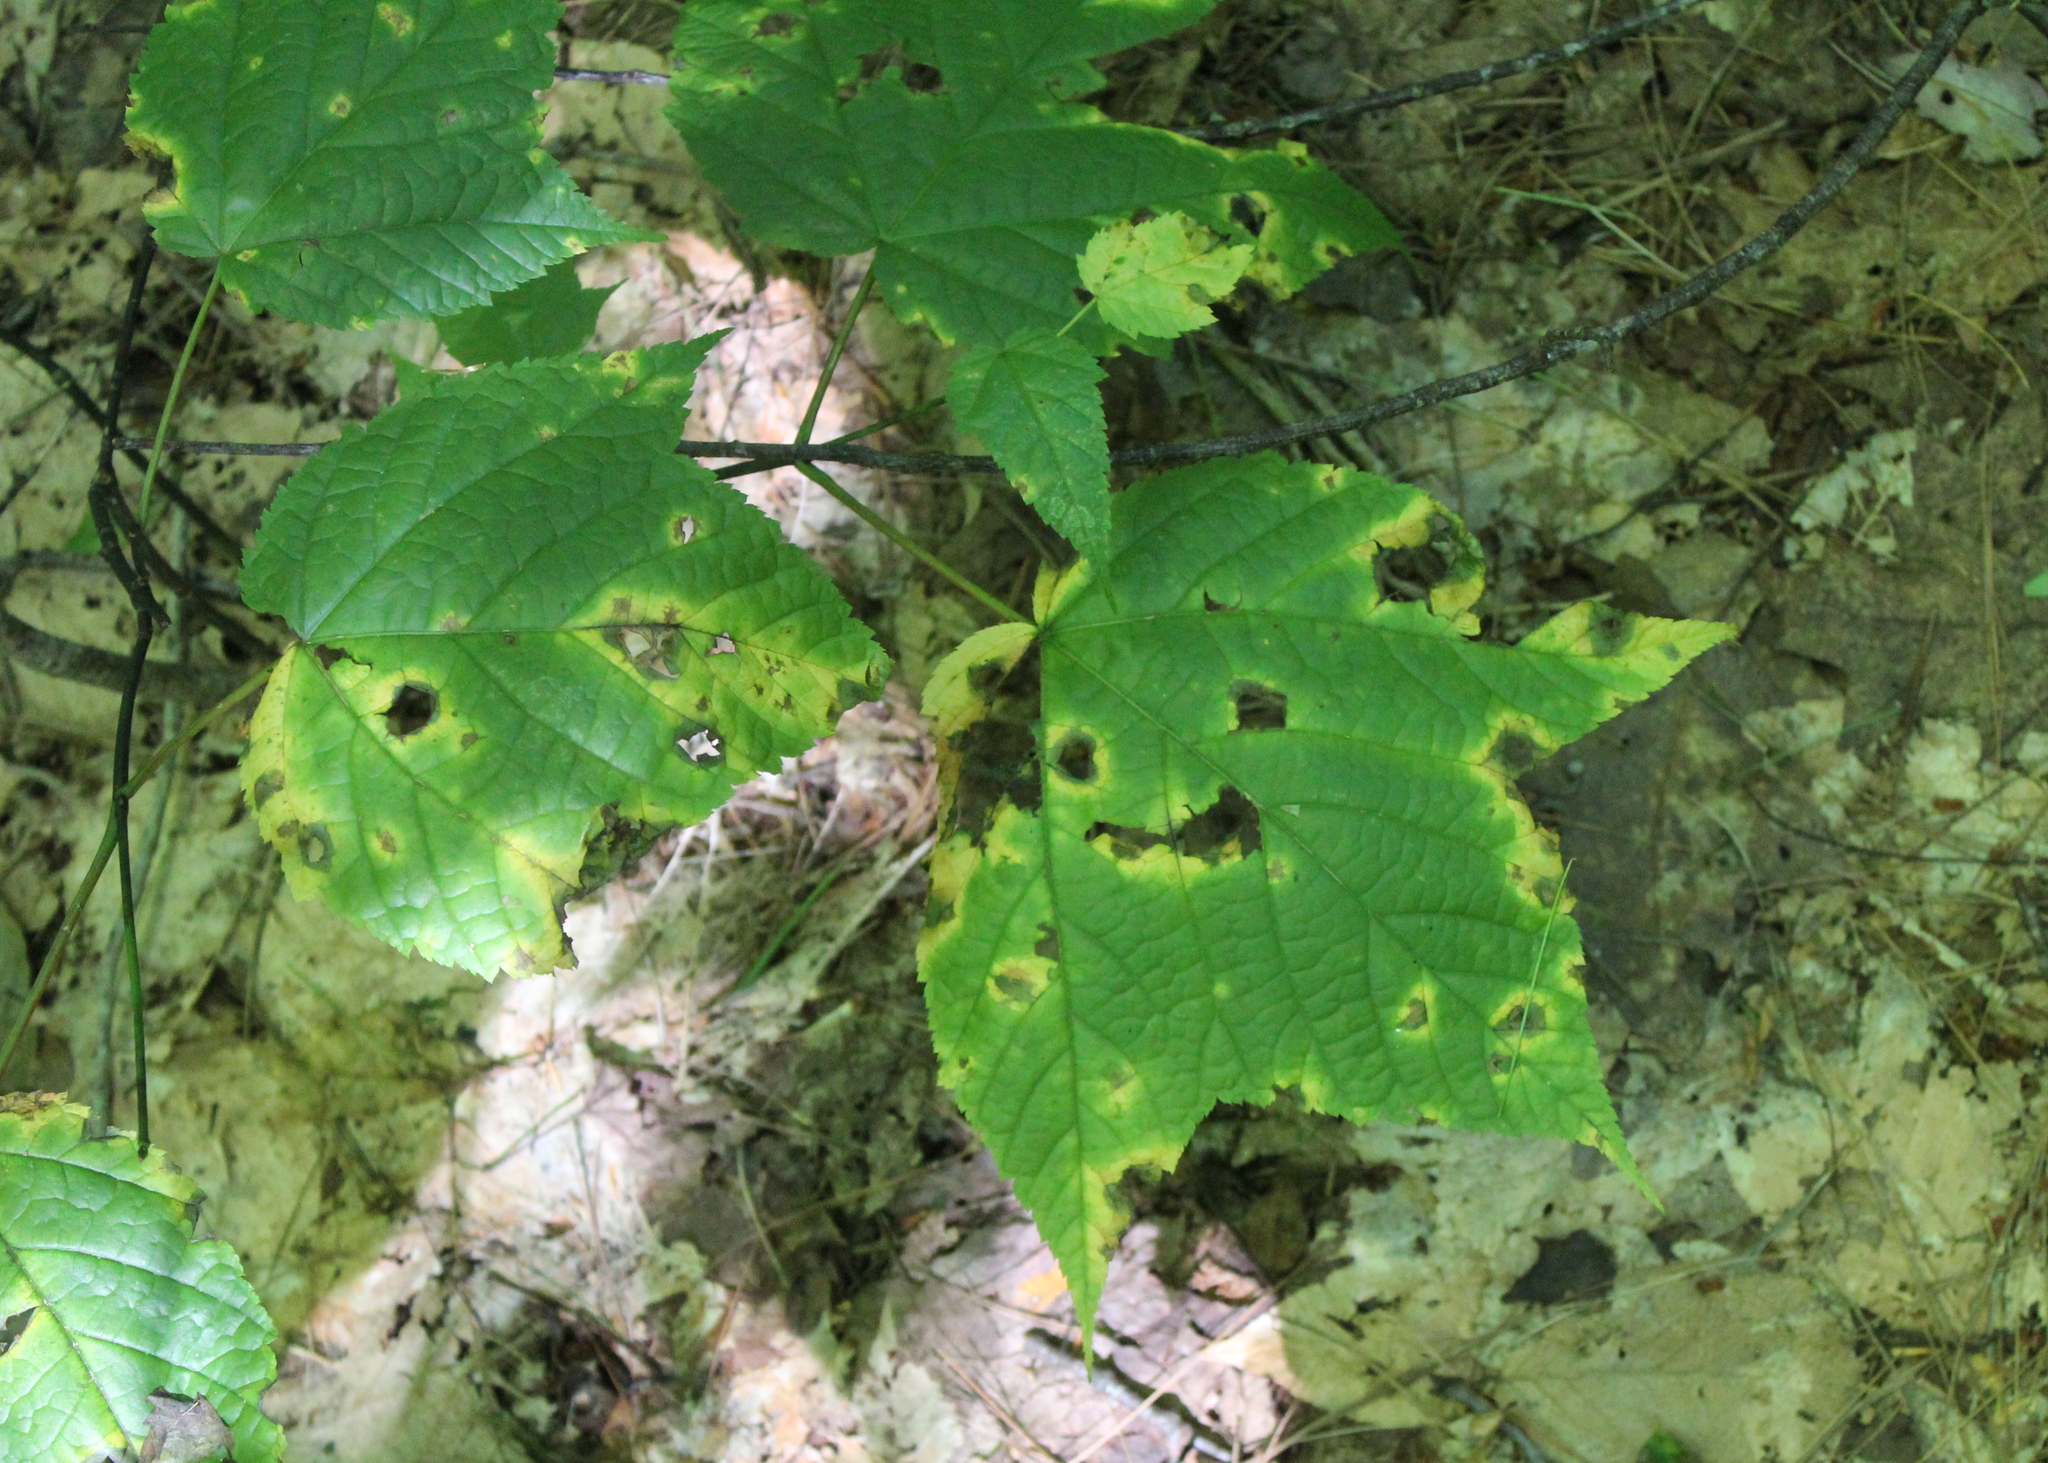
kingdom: Plantae
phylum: Tracheophyta
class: Magnoliopsida
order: Sapindales
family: Sapindaceae
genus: Acer
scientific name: Acer pensylvanicum
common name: Moosewood
